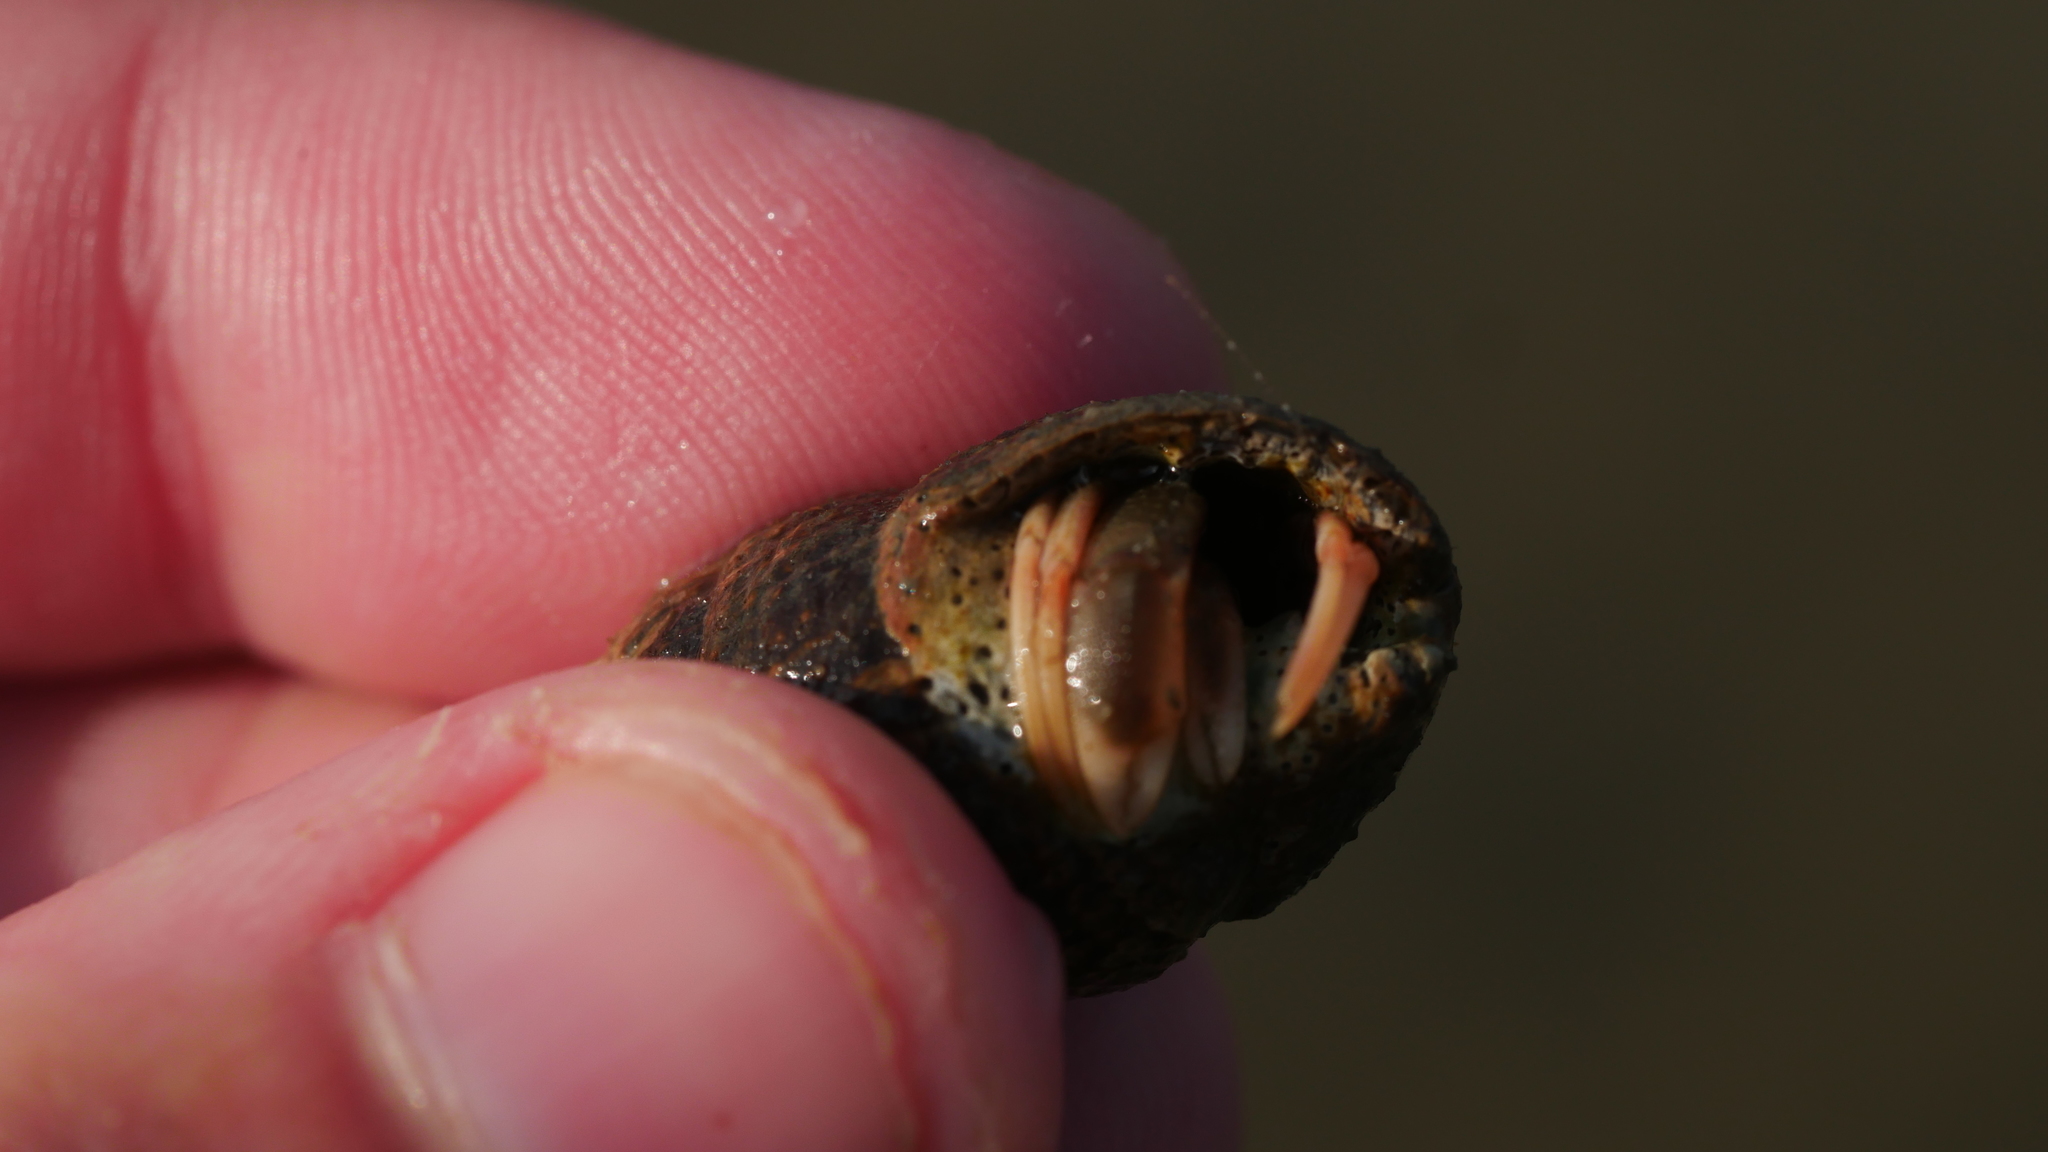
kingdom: Animalia
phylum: Arthropoda
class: Malacostraca
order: Decapoda
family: Paguridae
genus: Pagurus
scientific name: Pagurus longicarpus
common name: Long-armed hermit crab
